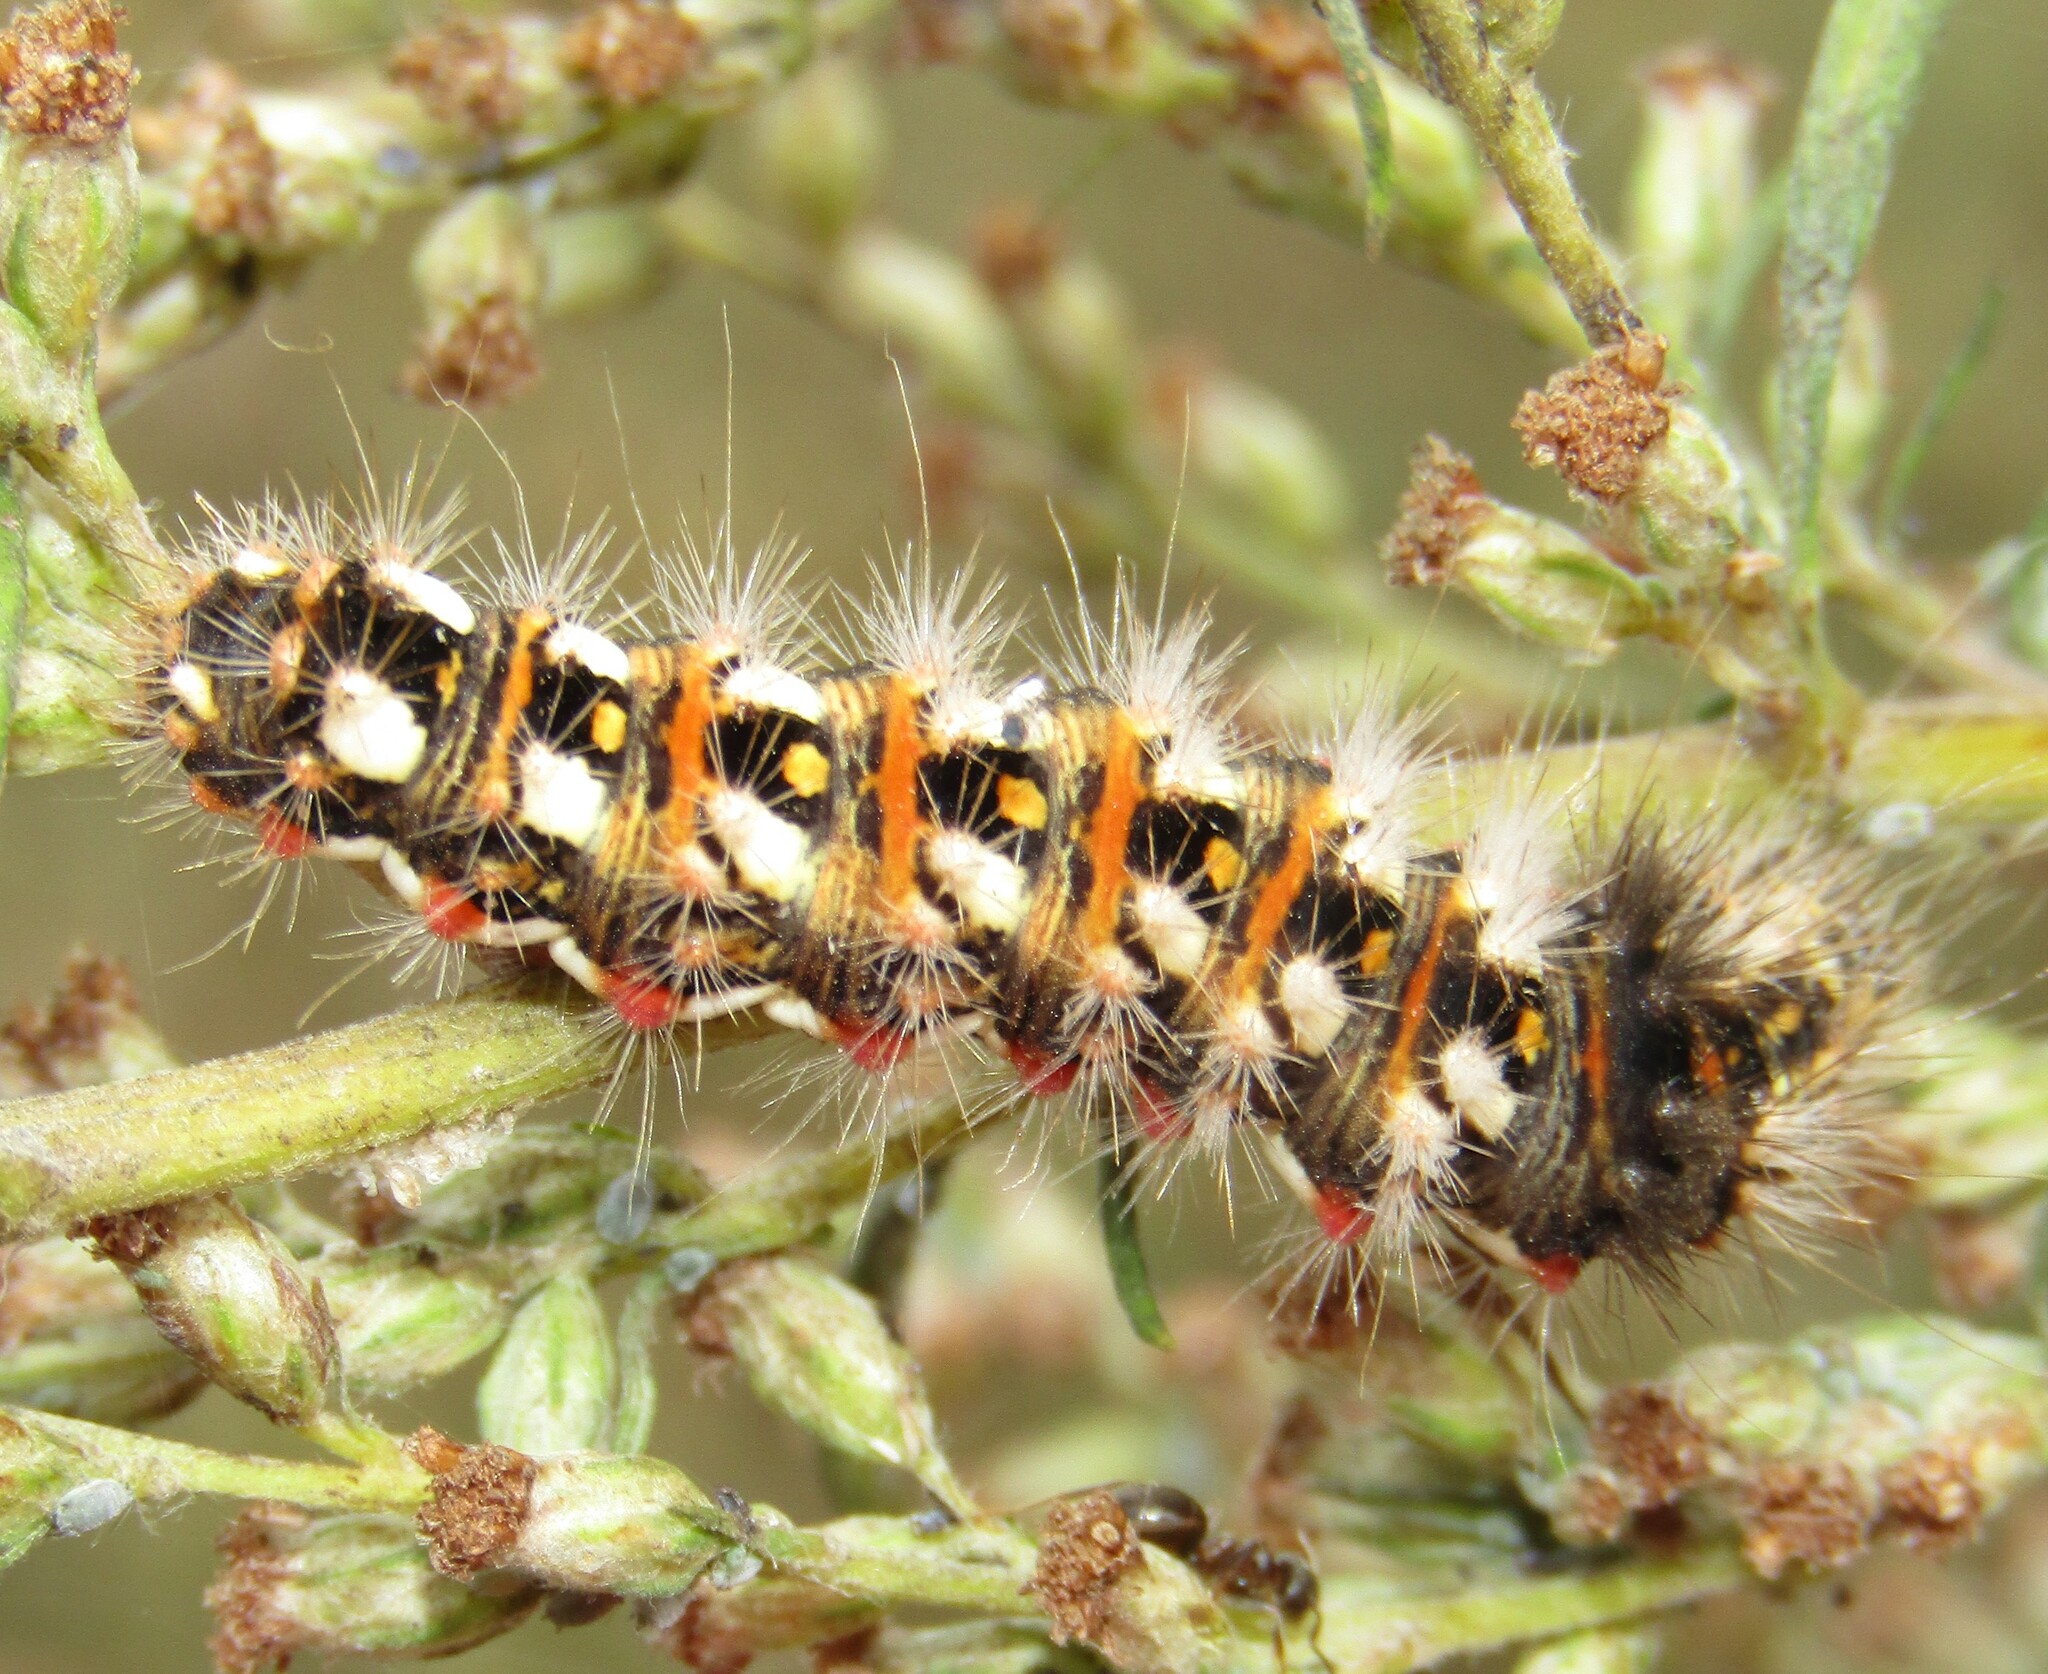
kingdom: Animalia
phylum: Arthropoda
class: Insecta
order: Lepidoptera
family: Noctuidae
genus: Acronicta
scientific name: Acronicta rumicis
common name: Knot grass
